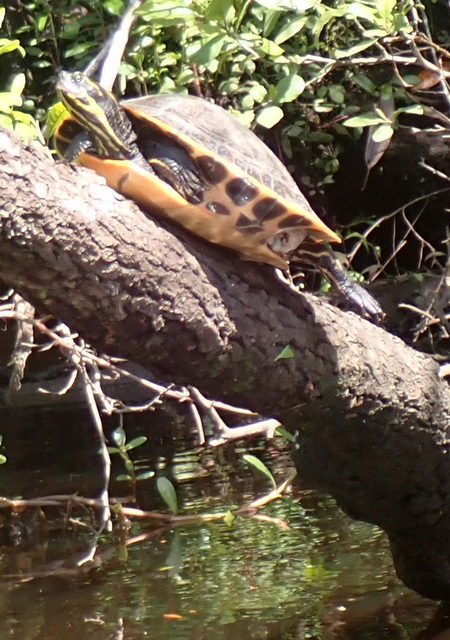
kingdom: Animalia
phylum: Chordata
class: Testudines
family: Emydidae
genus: Pseudemys
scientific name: Pseudemys concinna
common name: Eastern river cooter
